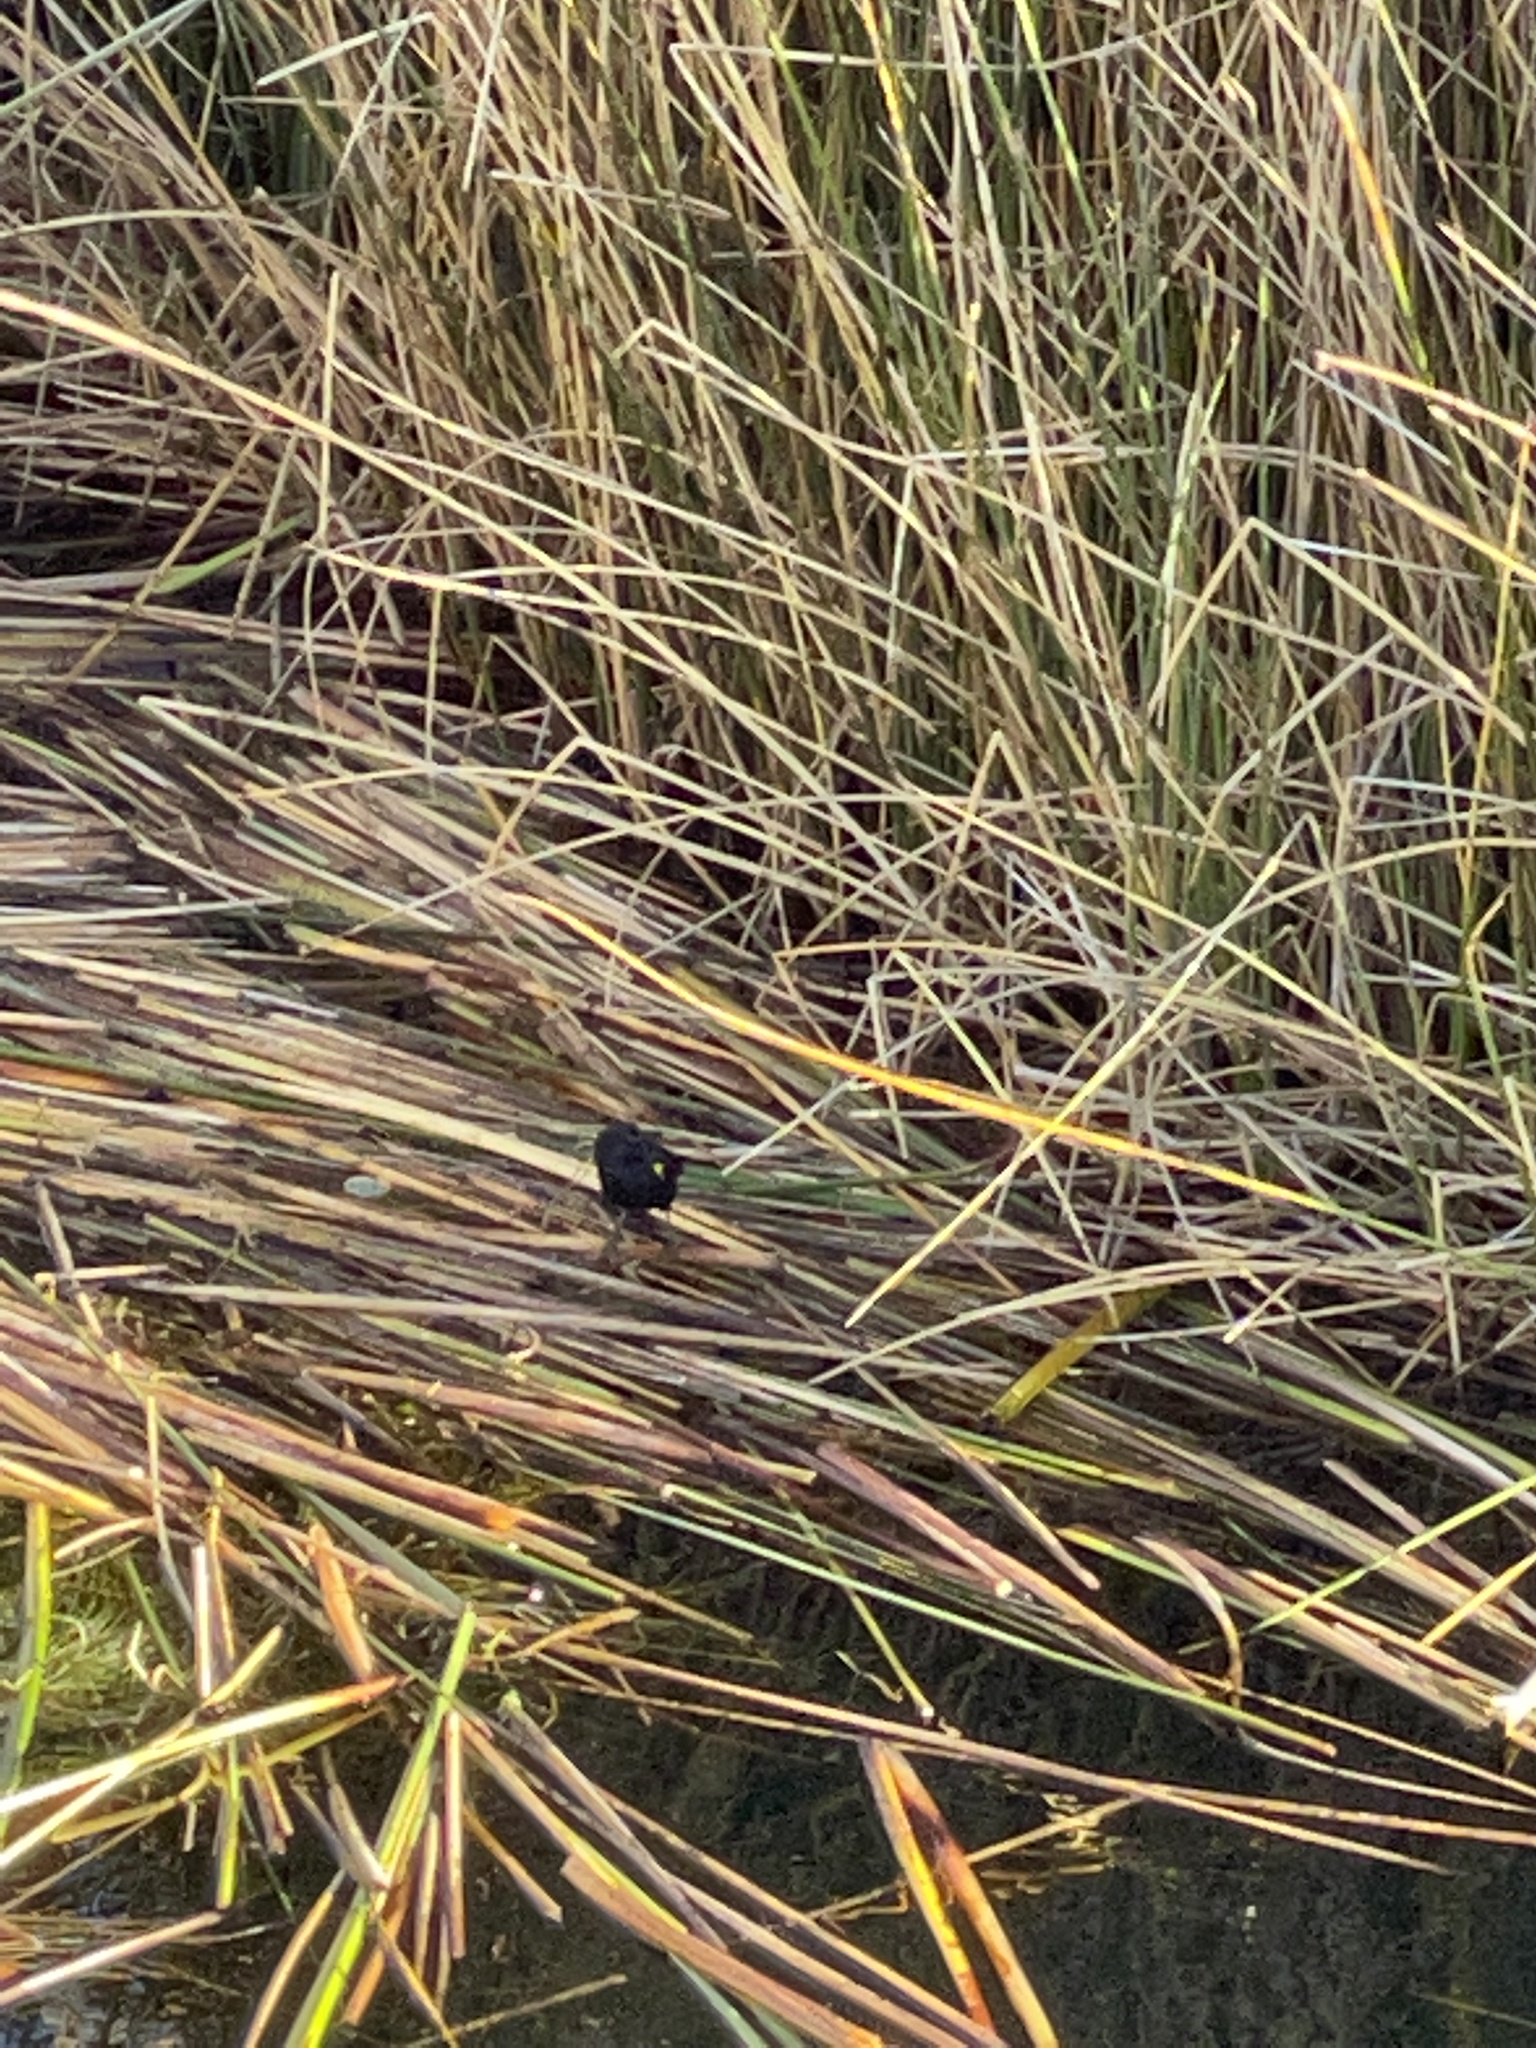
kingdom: Animalia
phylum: Chordata
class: Aves
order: Passeriformes
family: Icteridae
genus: Agelasticus
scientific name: Agelasticus thilius
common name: Yellow-winged blackbird
